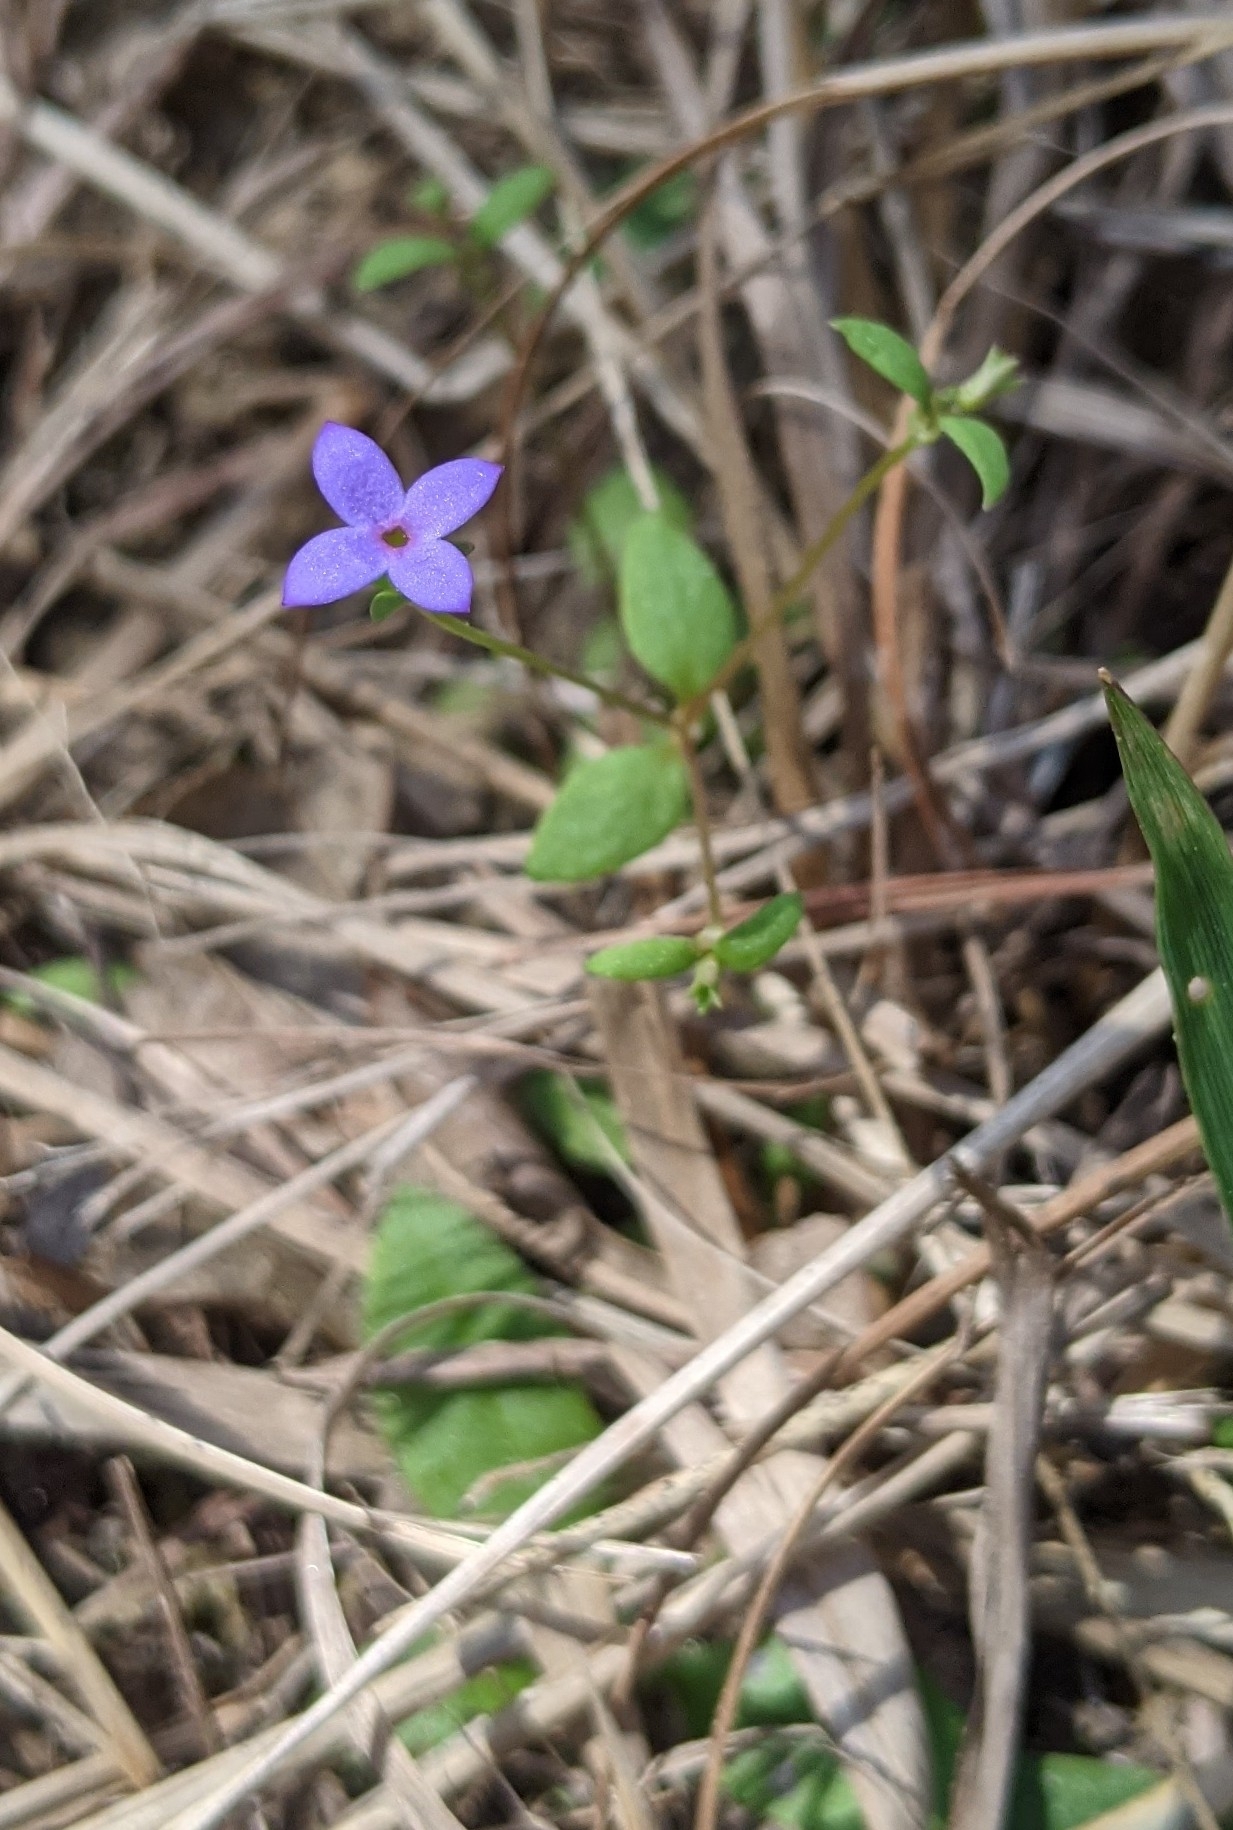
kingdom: Plantae
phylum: Tracheophyta
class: Magnoliopsida
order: Gentianales
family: Rubiaceae
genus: Houstonia
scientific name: Houstonia pusilla
